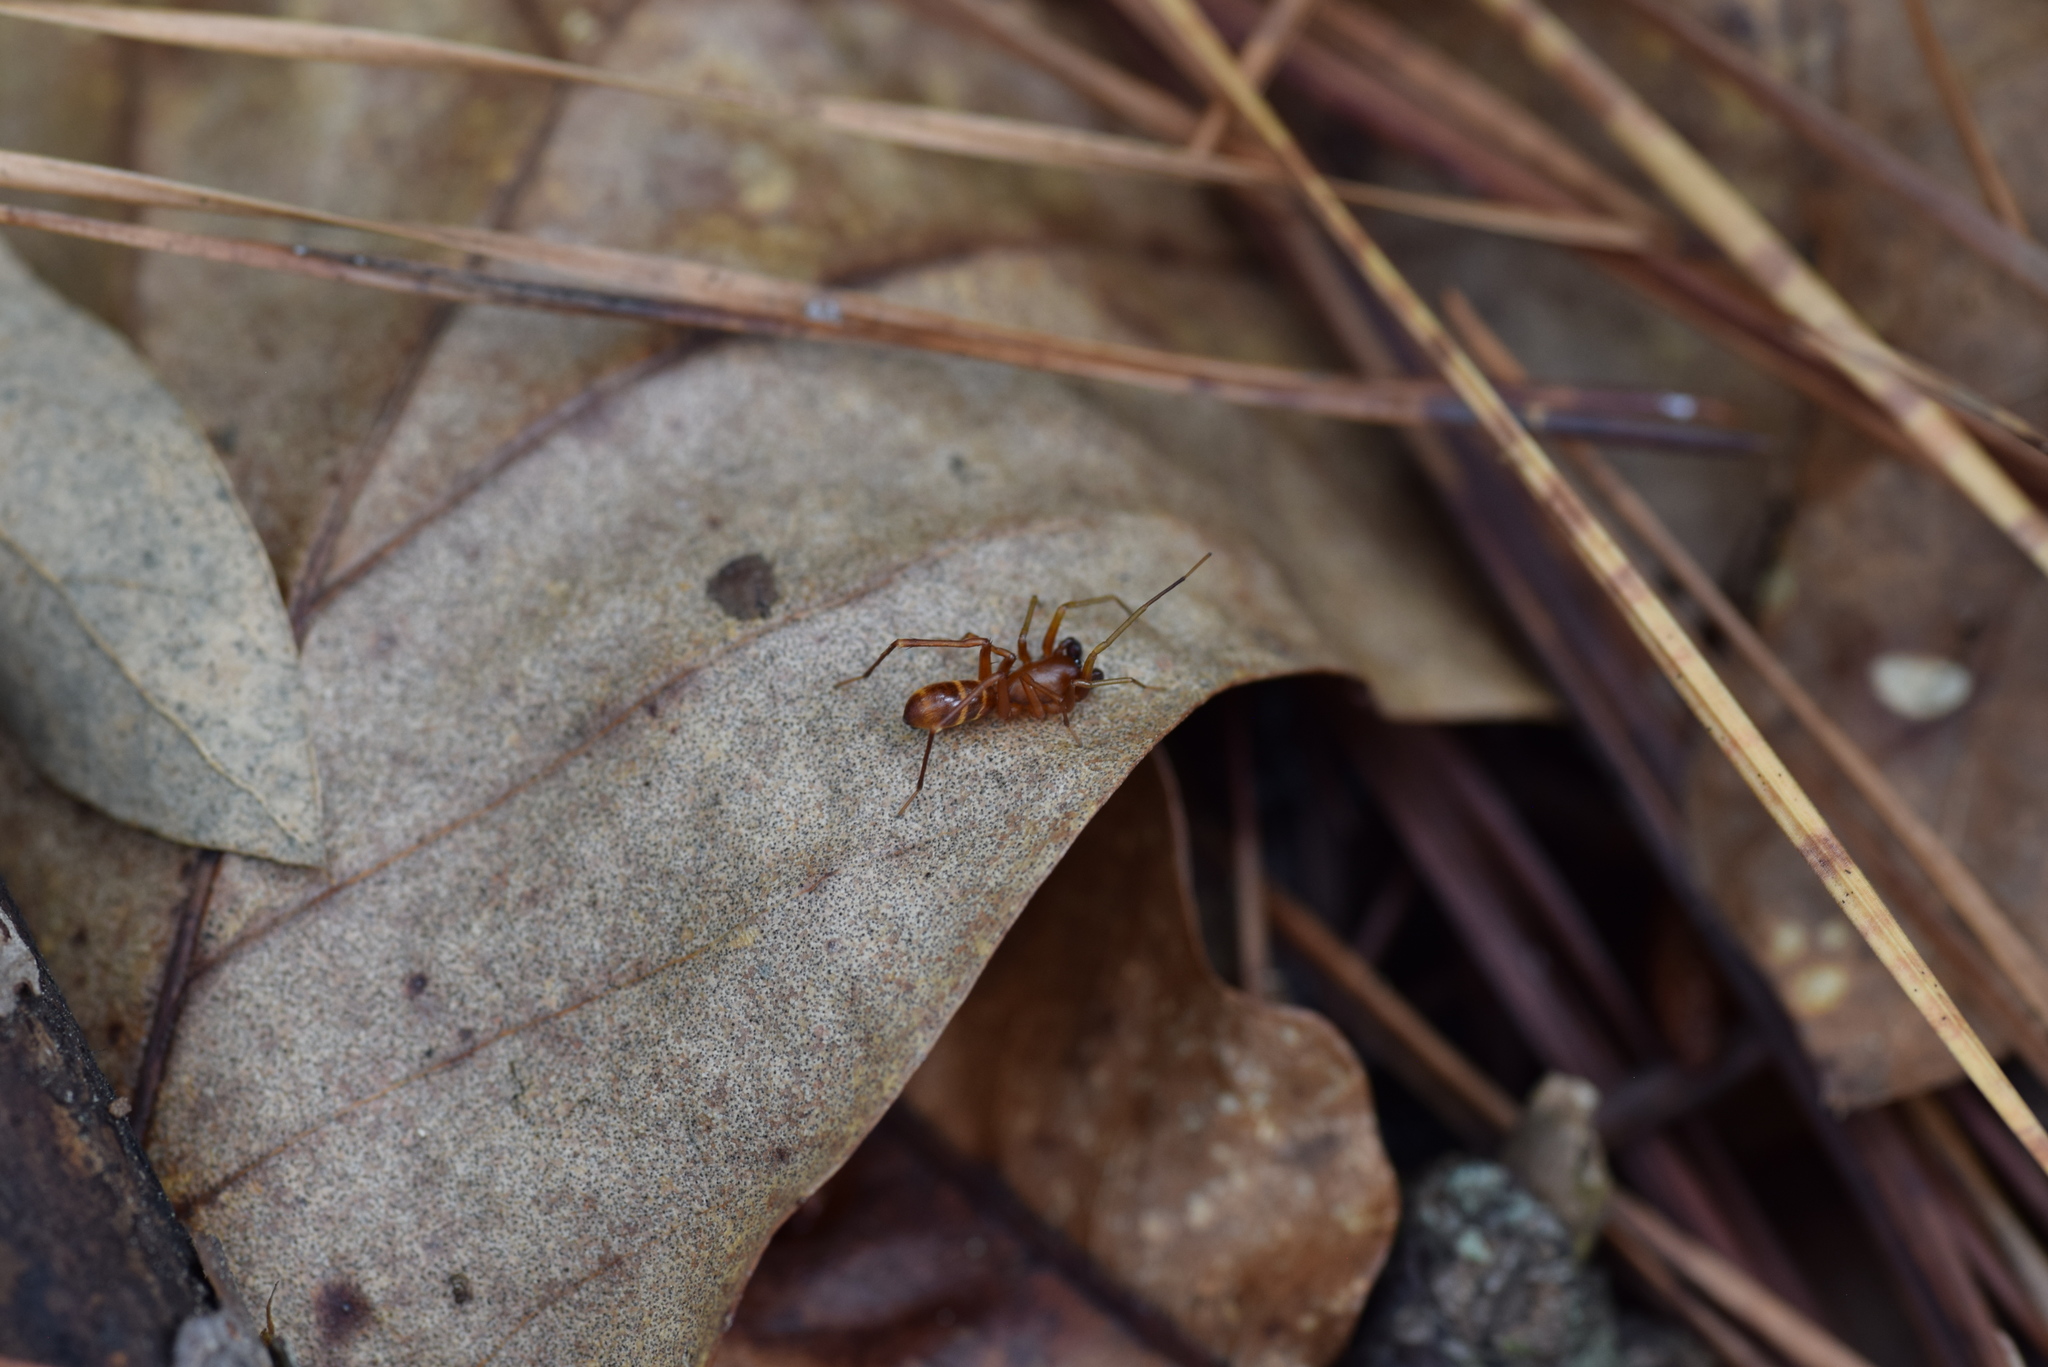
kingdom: Animalia
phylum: Arthropoda
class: Arachnida
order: Araneae
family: Corinnidae
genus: Castianeira
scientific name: Castianeira trilineata
